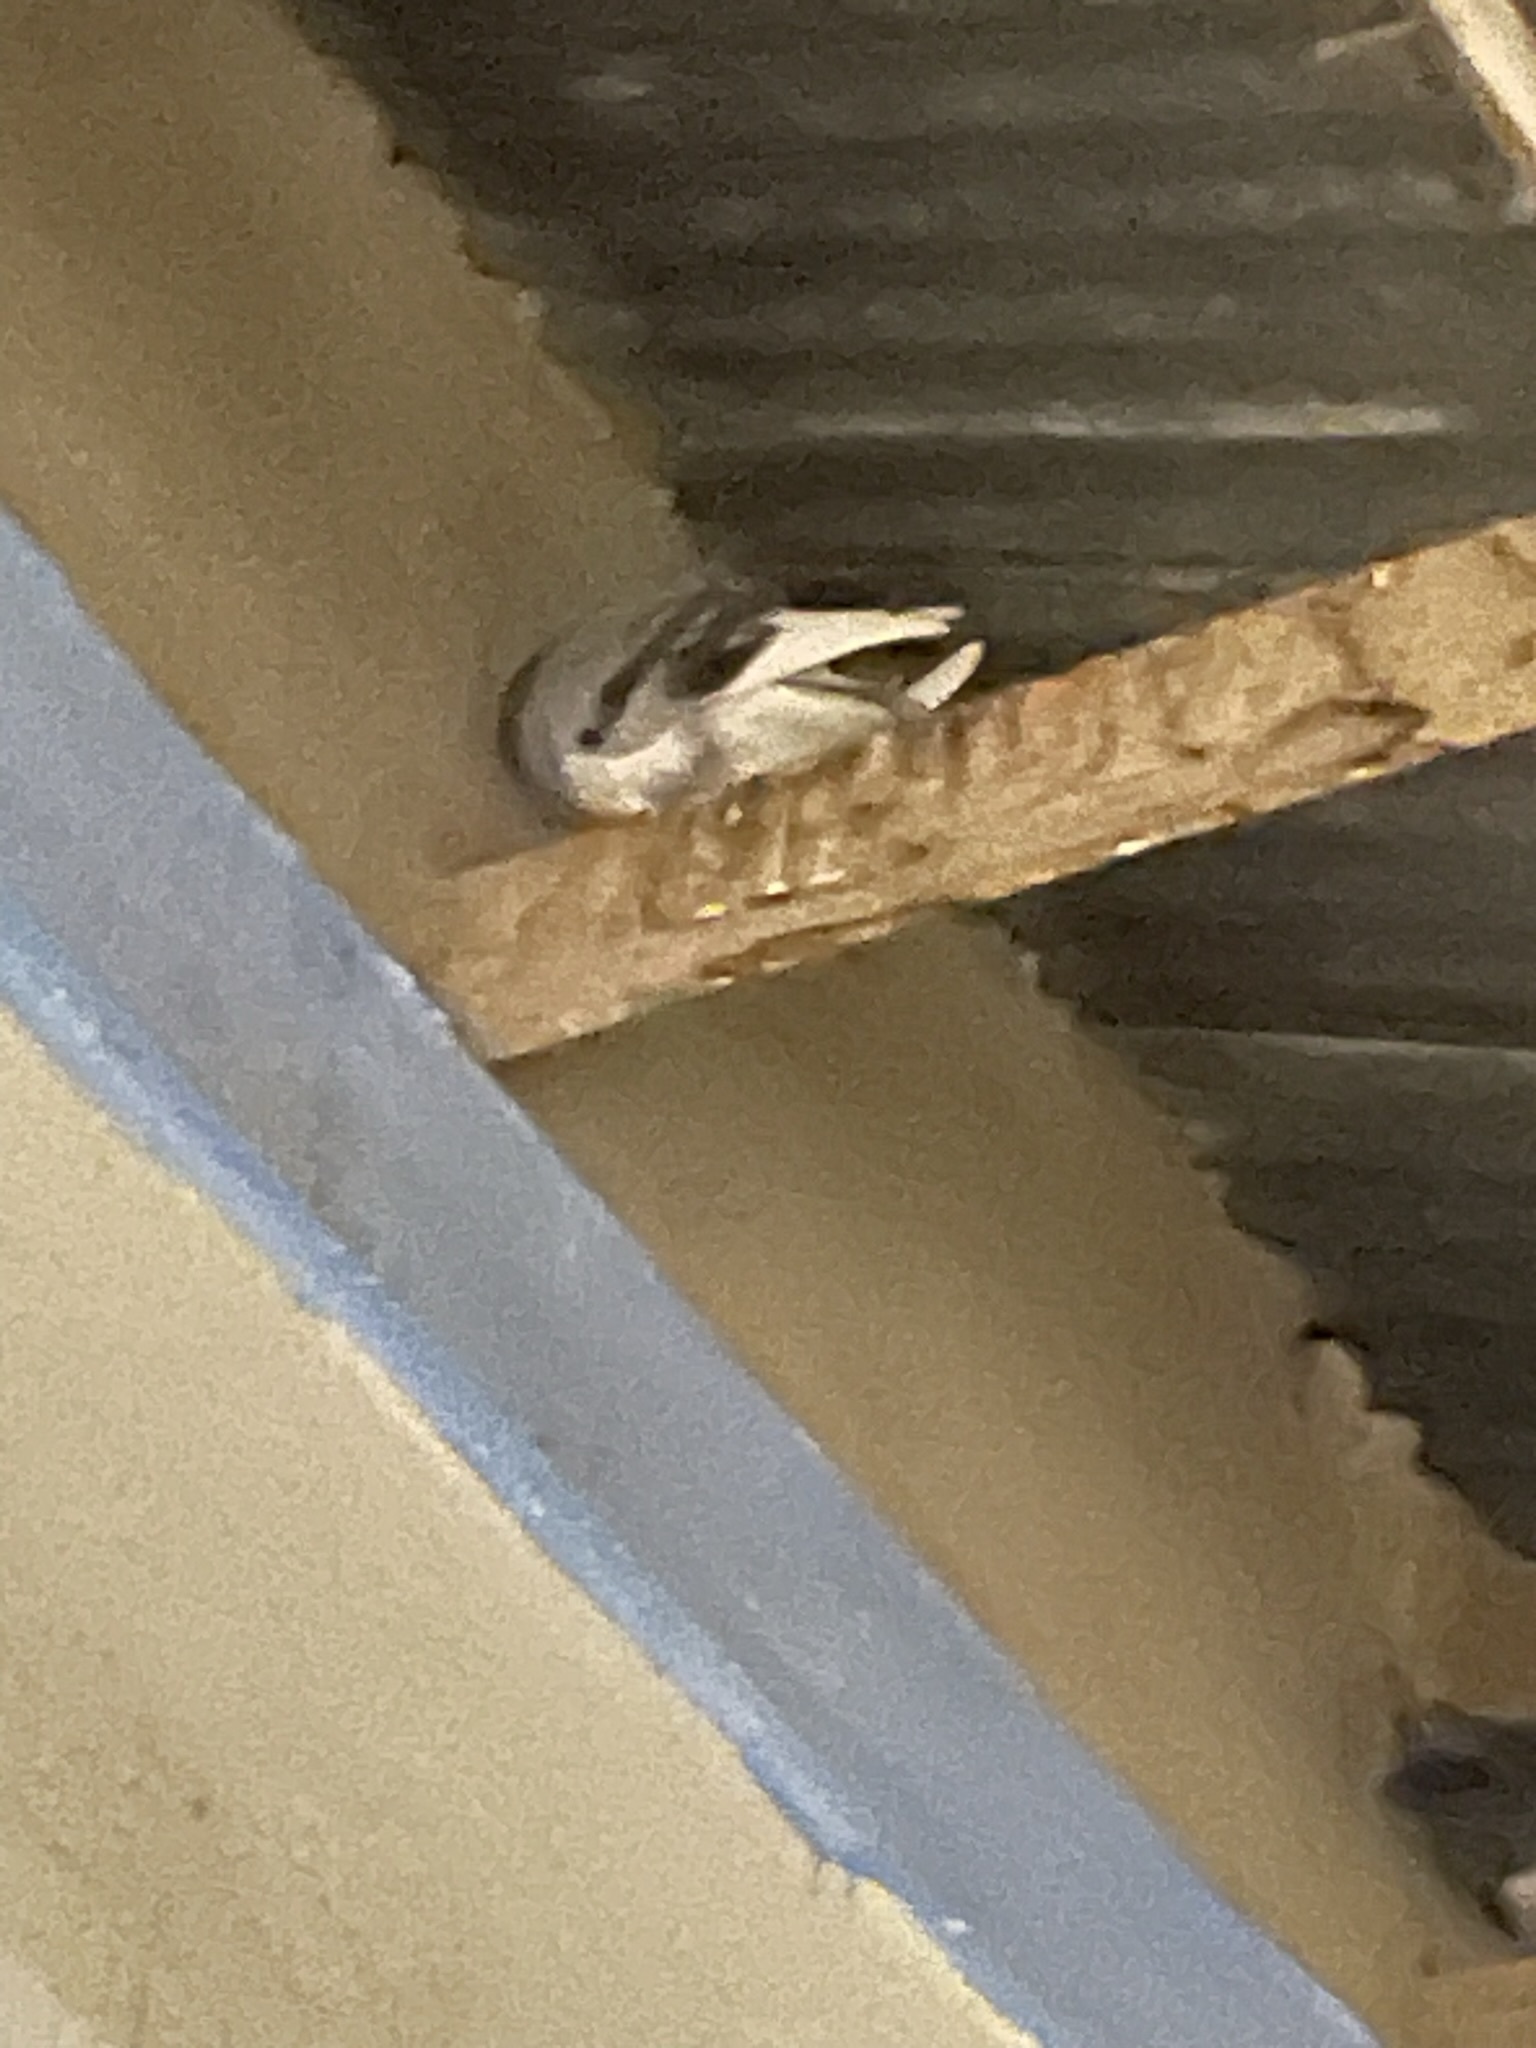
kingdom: Animalia
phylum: Chordata
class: Aves
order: Columbiformes
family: Columbidae
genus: Columba
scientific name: Columba livia
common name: Rock pigeon
